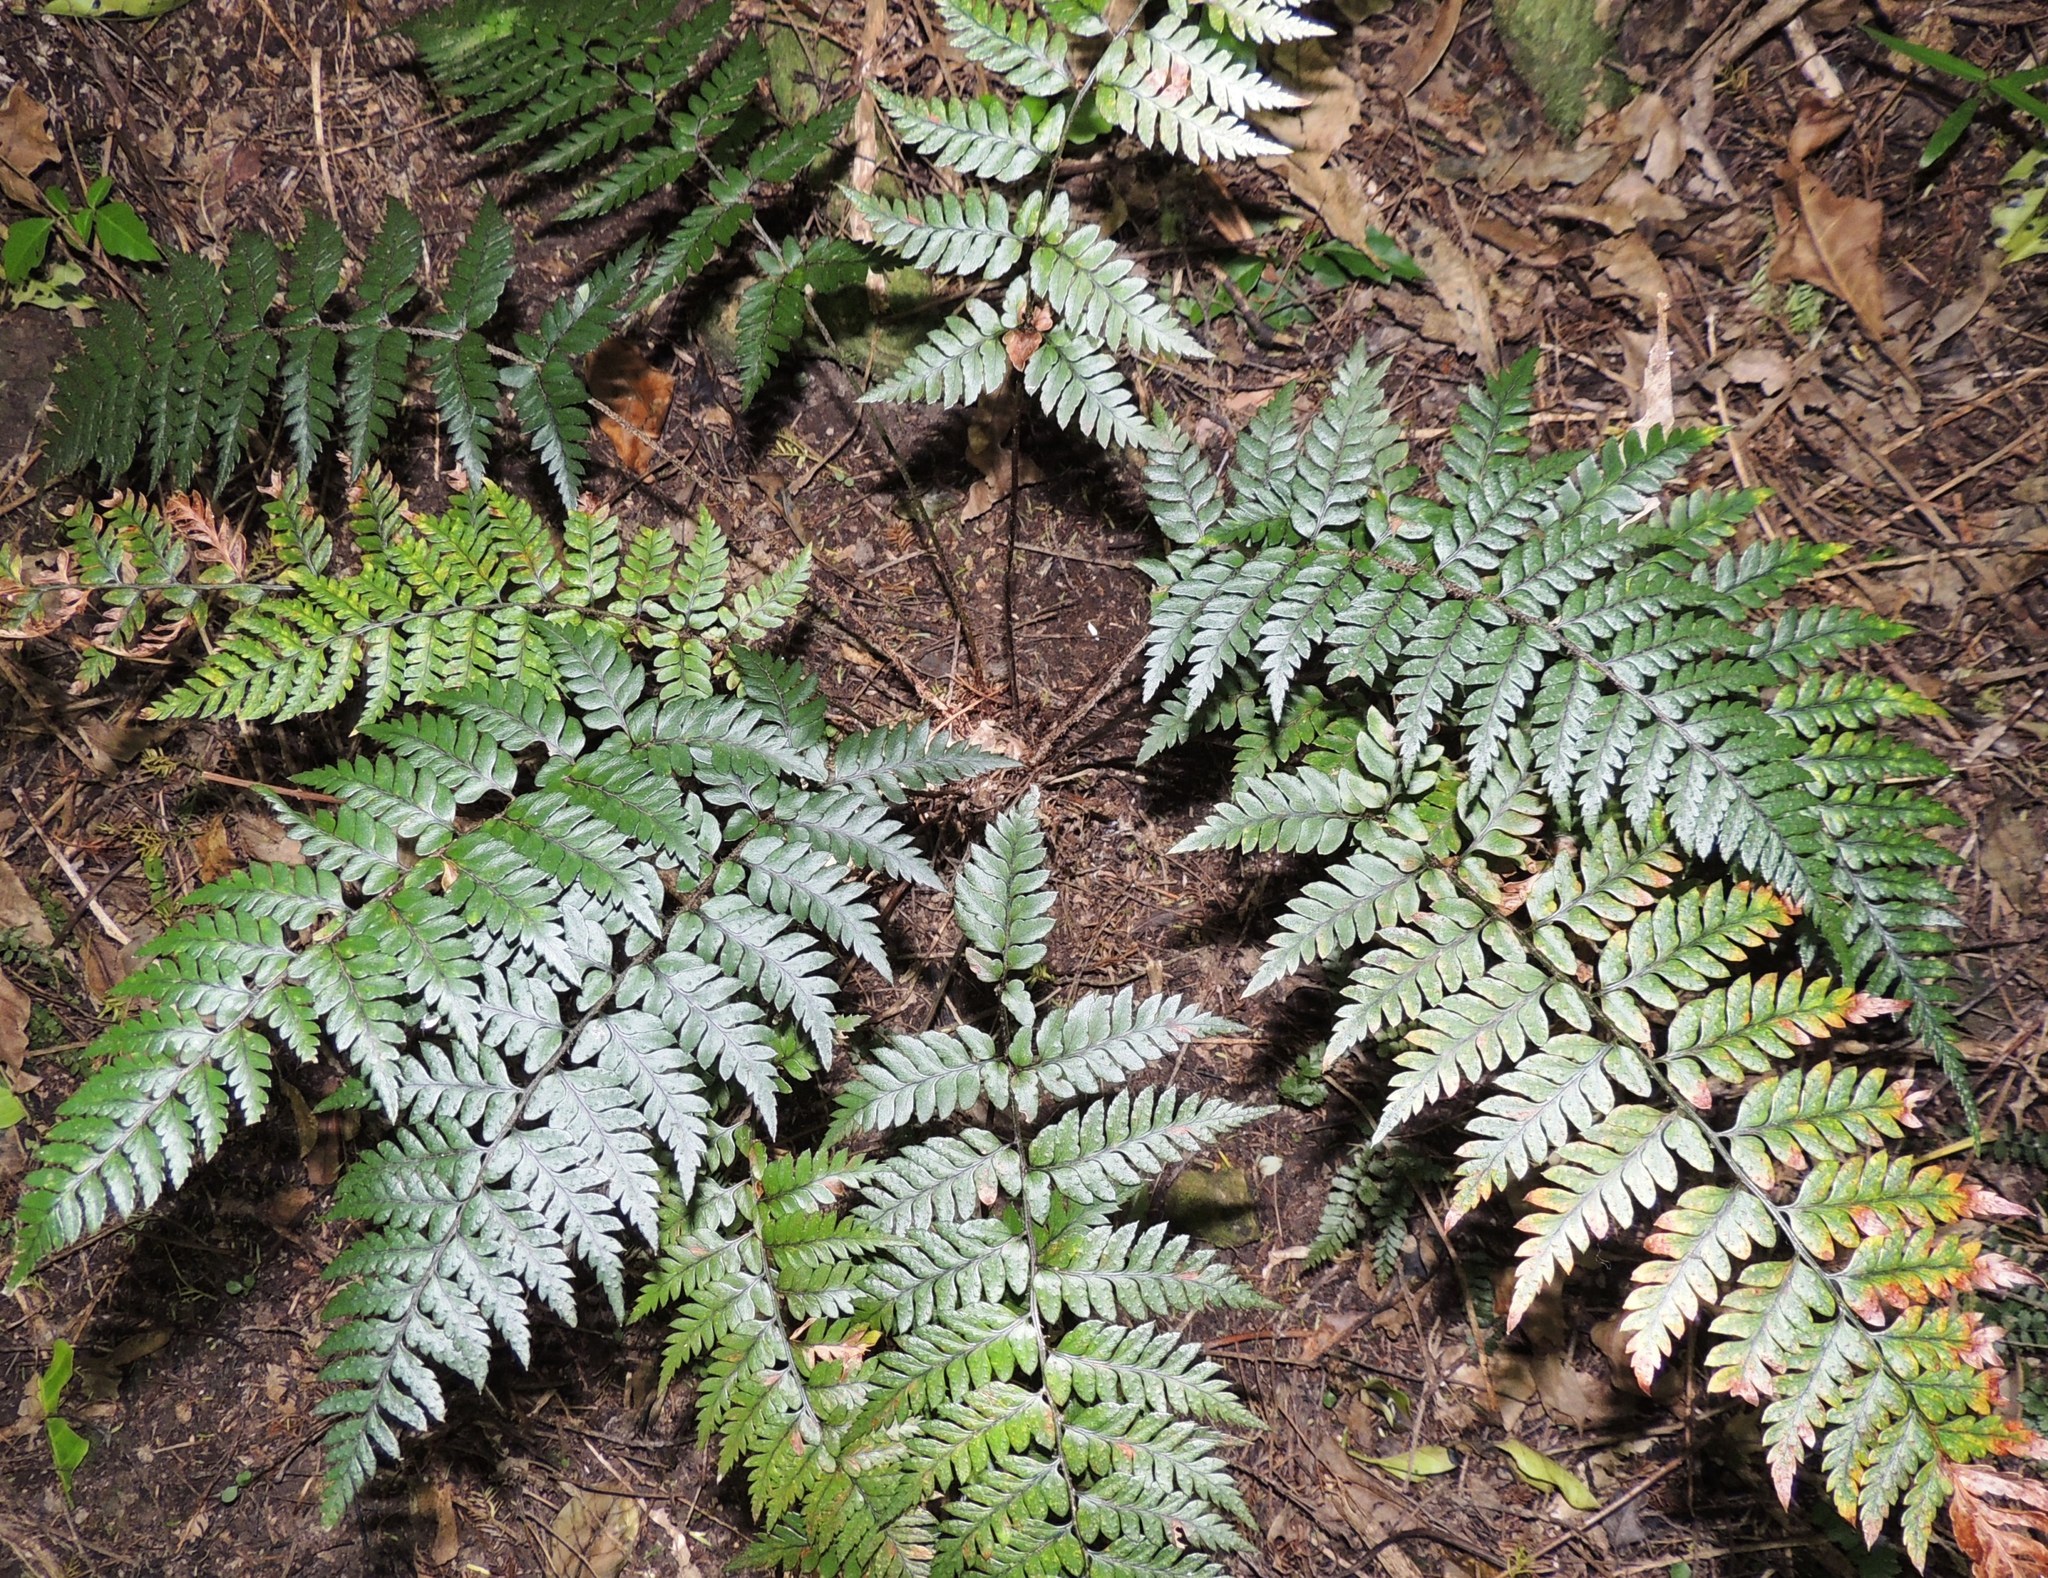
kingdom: Plantae
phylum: Tracheophyta
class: Polypodiopsida
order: Polypodiales
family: Dryopteridaceae
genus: Polystichum
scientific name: Polystichum neozelandicum
